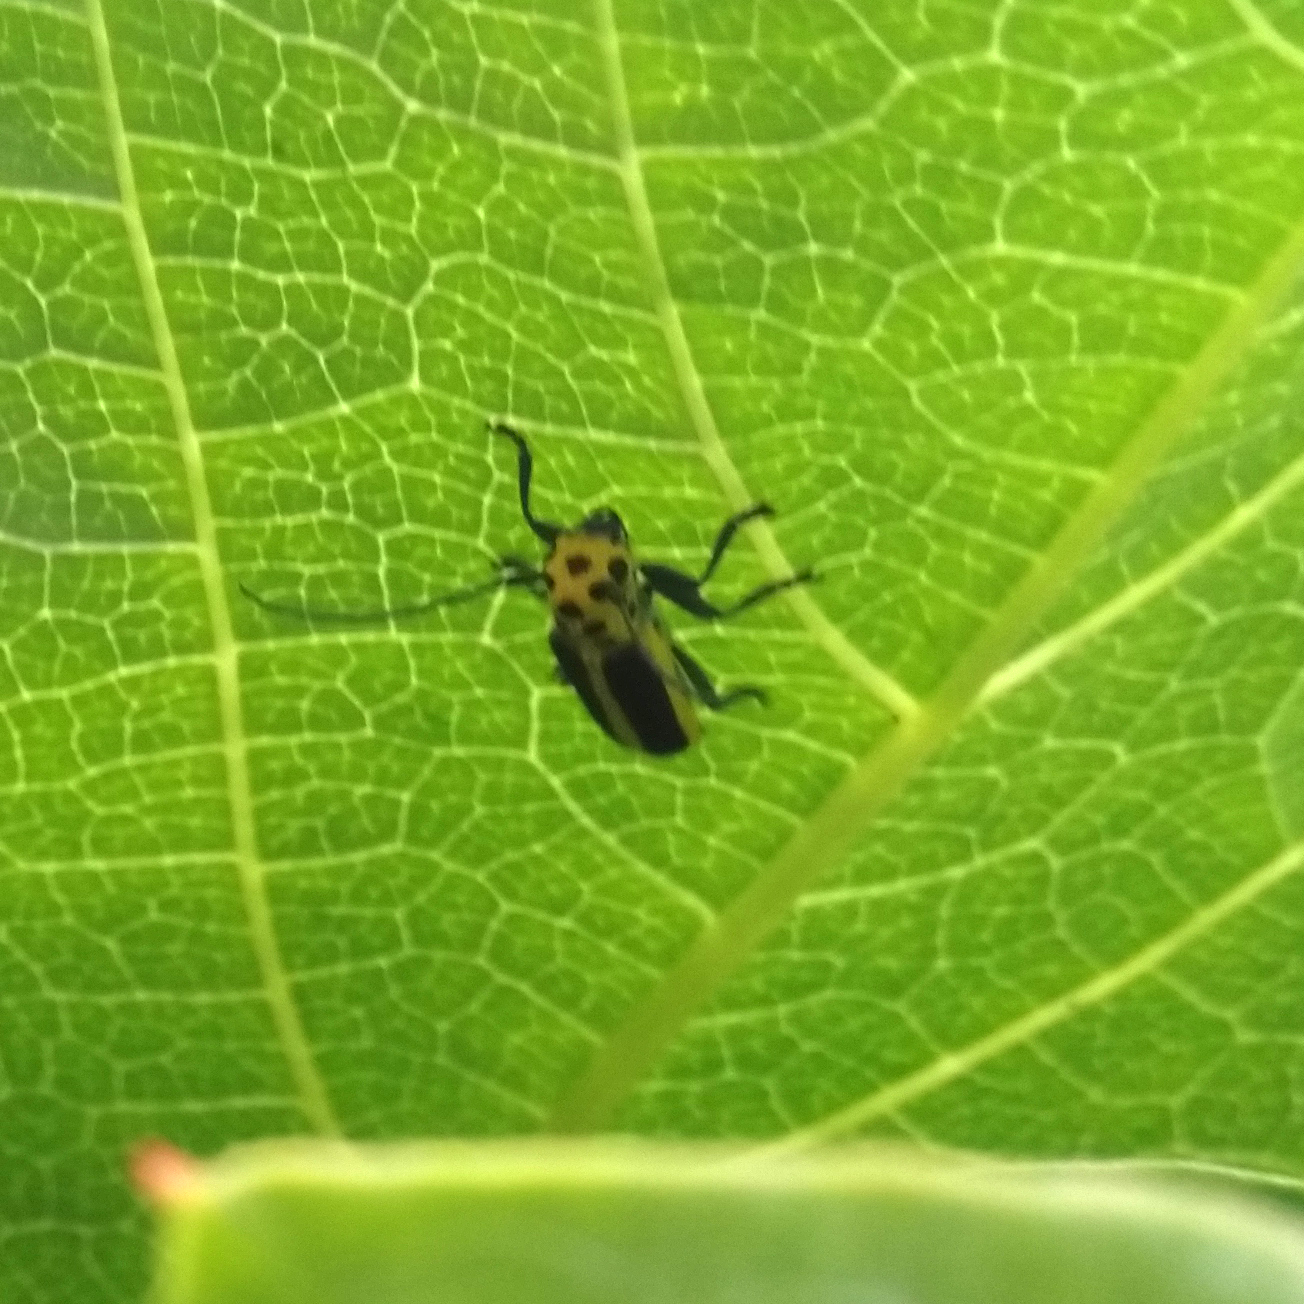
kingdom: Animalia
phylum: Arthropoda
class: Insecta
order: Coleoptera
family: Cerambycidae
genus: Saperda
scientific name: Saperda puncticollis
